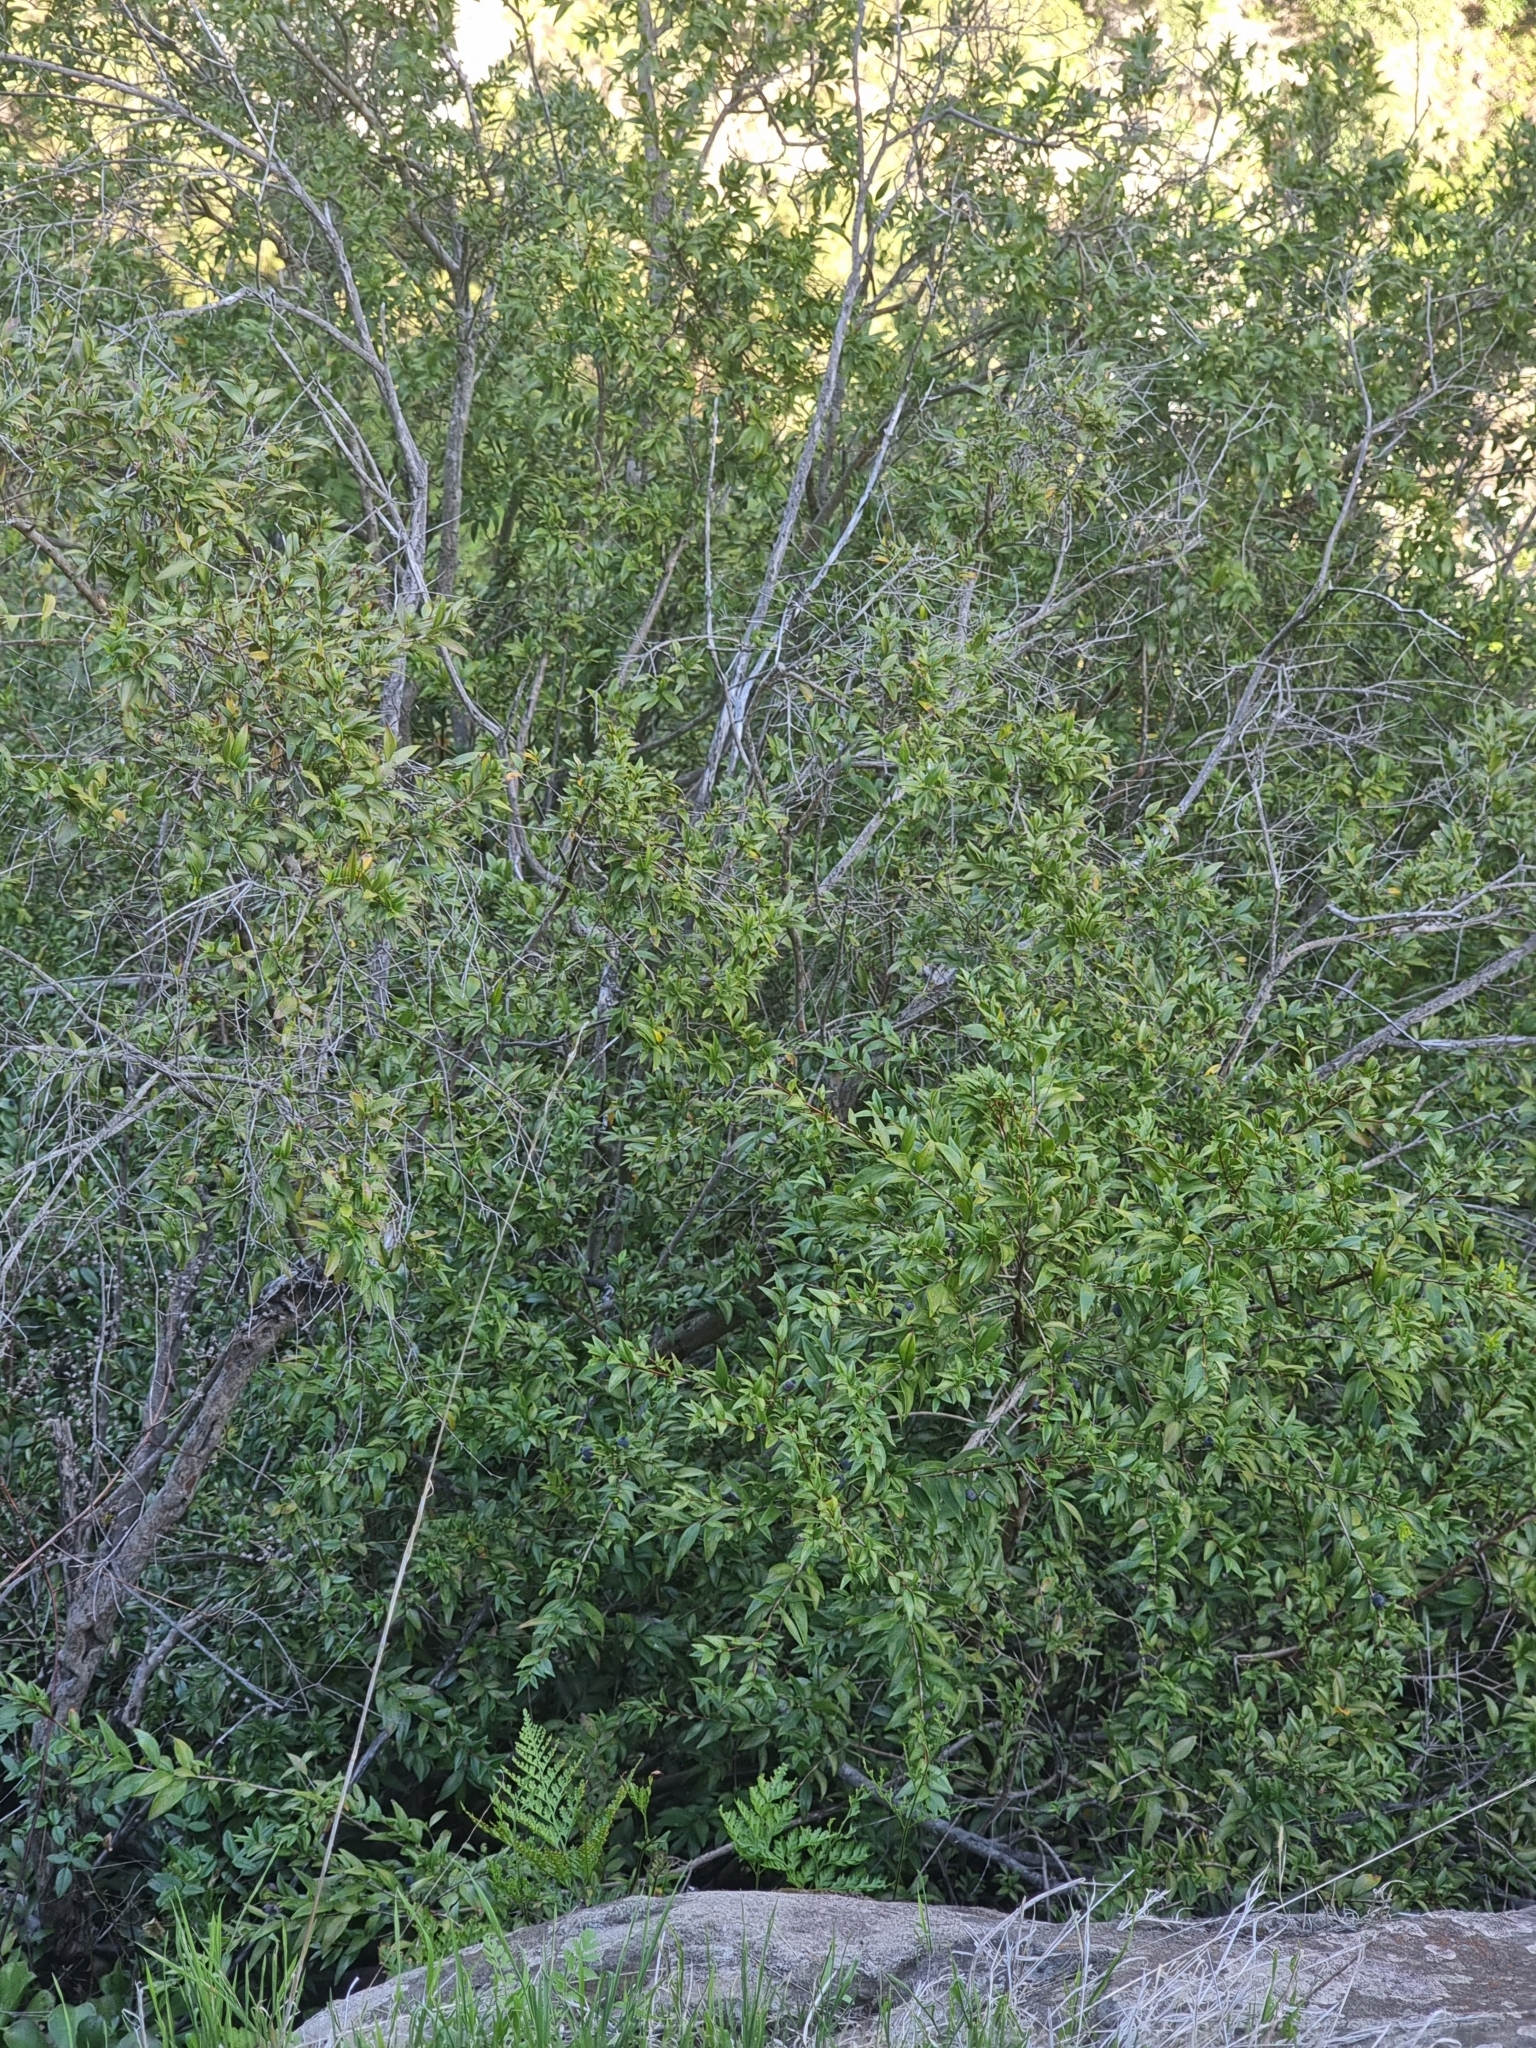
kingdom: Plantae
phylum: Tracheophyta
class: Magnoliopsida
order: Myrtales
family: Myrtaceae
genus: Myrtus
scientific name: Myrtus communis
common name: Myrtle
